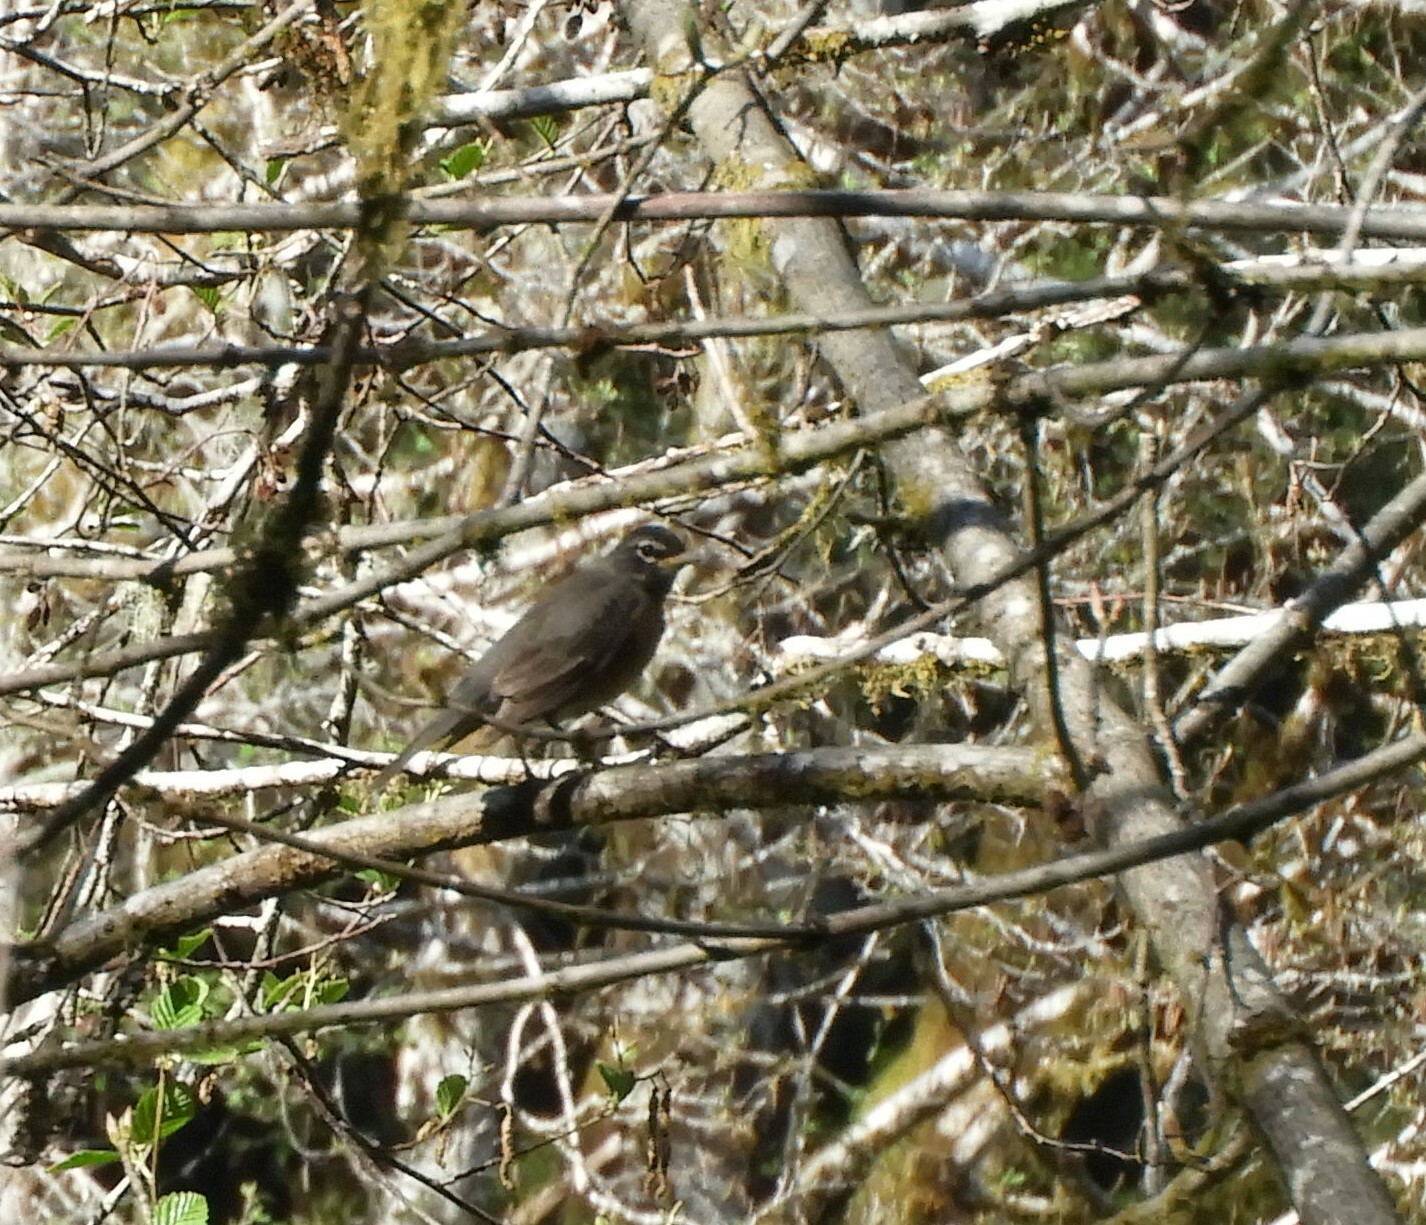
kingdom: Animalia
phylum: Chordata
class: Aves
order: Passeriformes
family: Turdidae
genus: Turdus
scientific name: Turdus migratorius
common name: American robin
